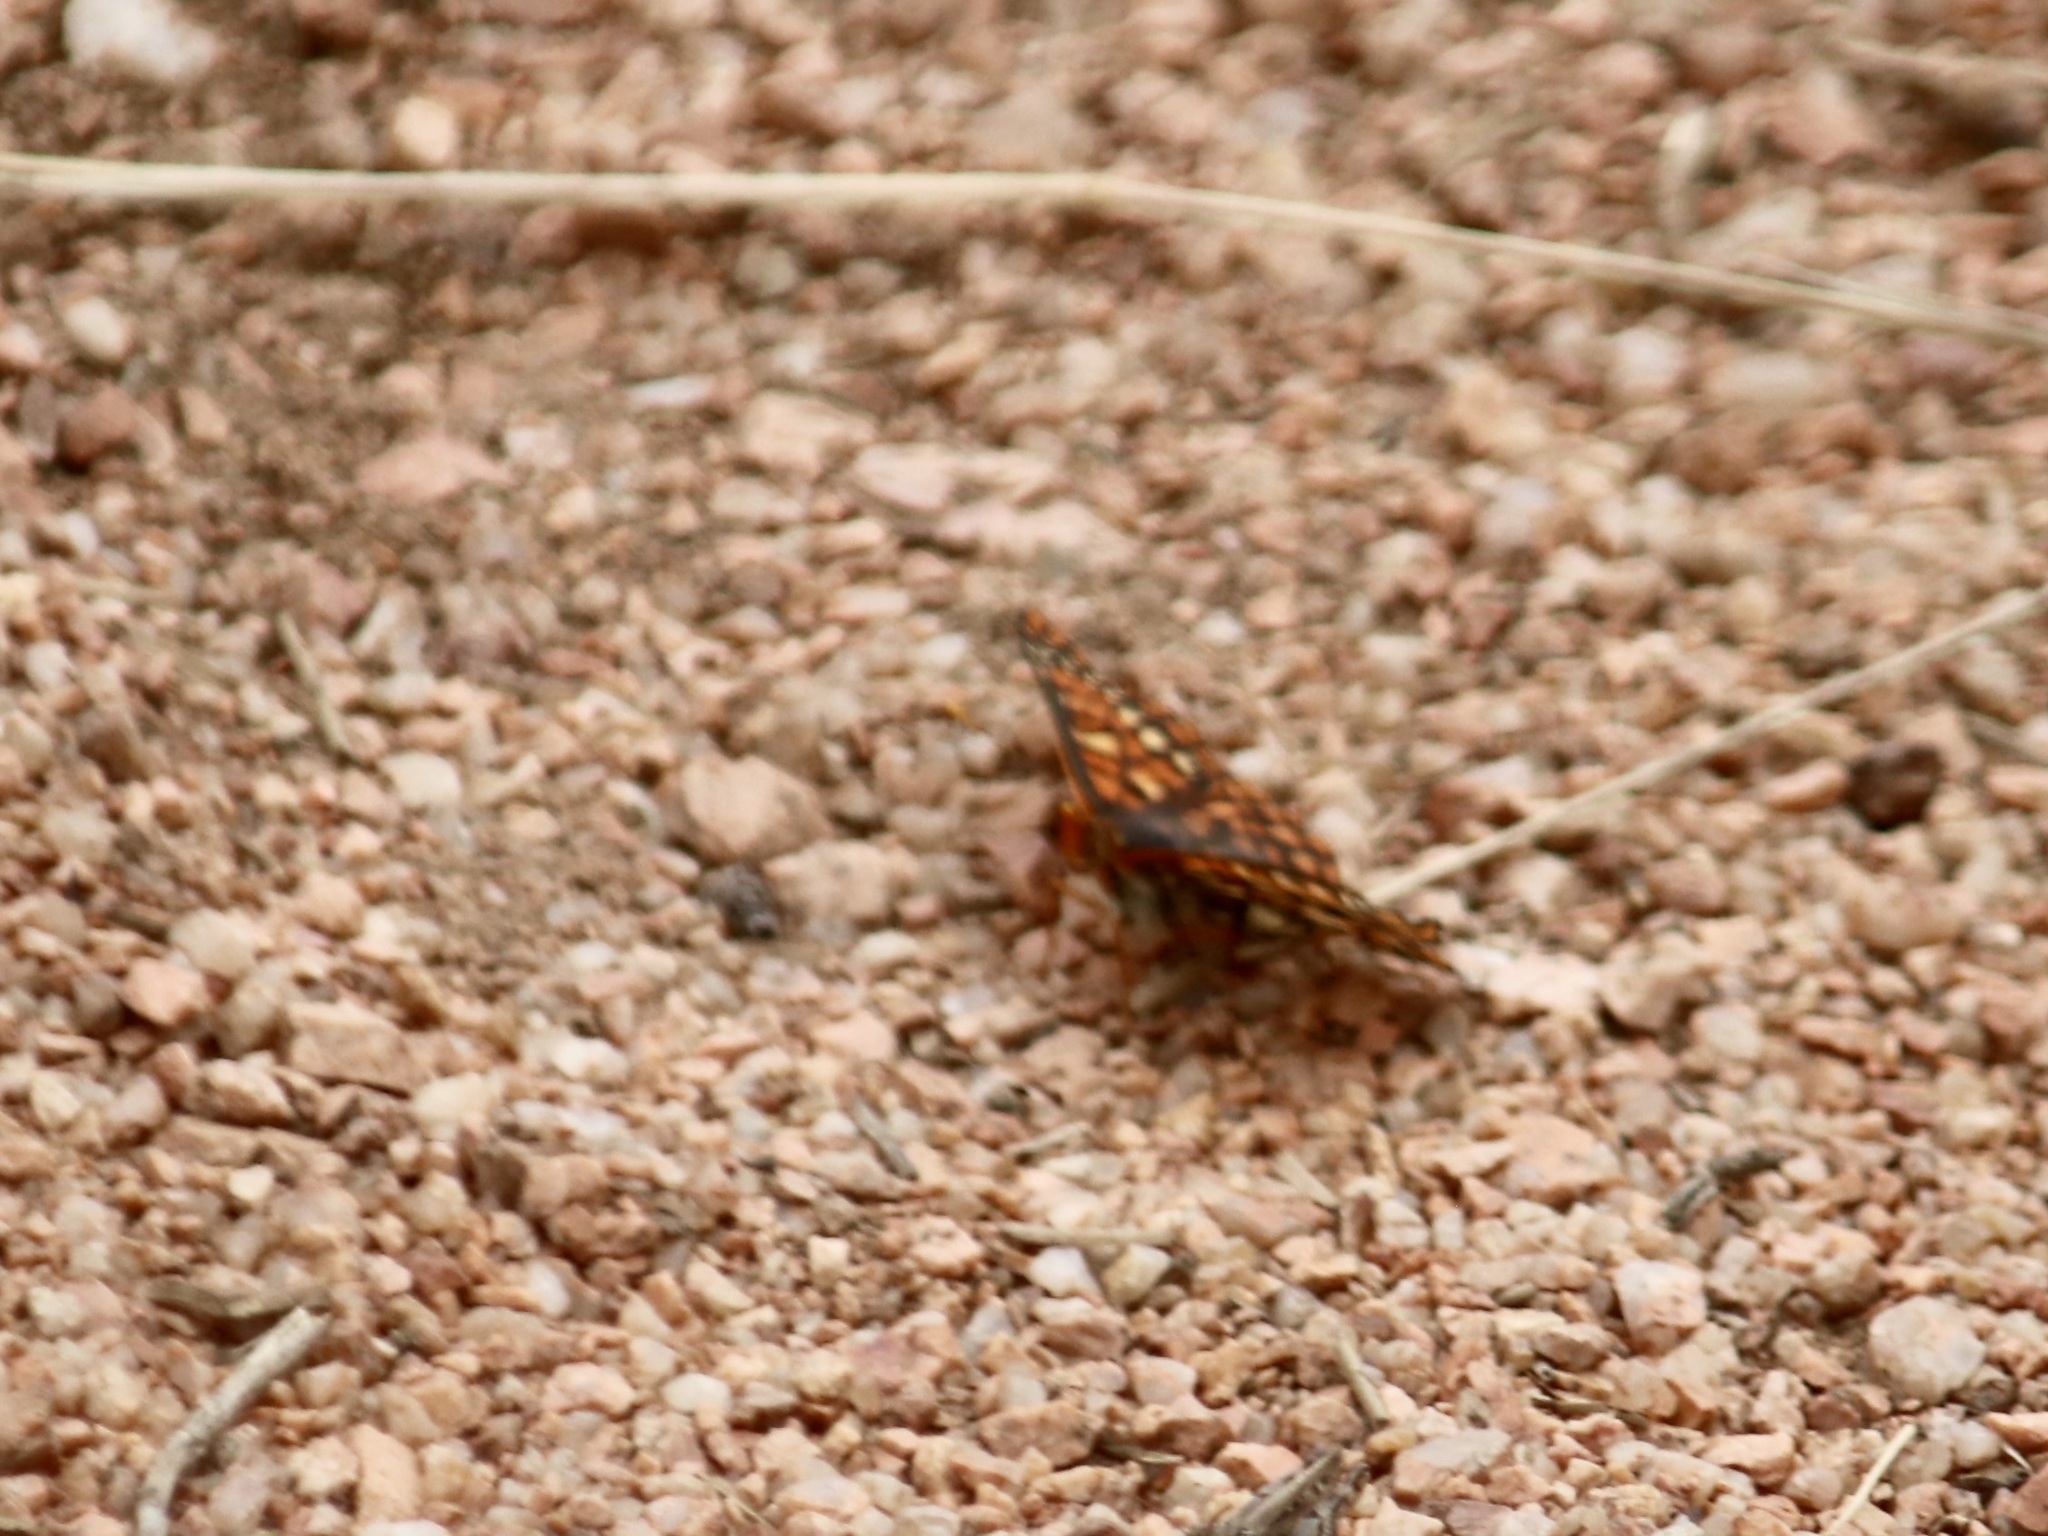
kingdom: Animalia
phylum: Arthropoda
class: Insecta
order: Lepidoptera
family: Nymphalidae
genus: Occidryas
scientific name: Occidryas anicia
